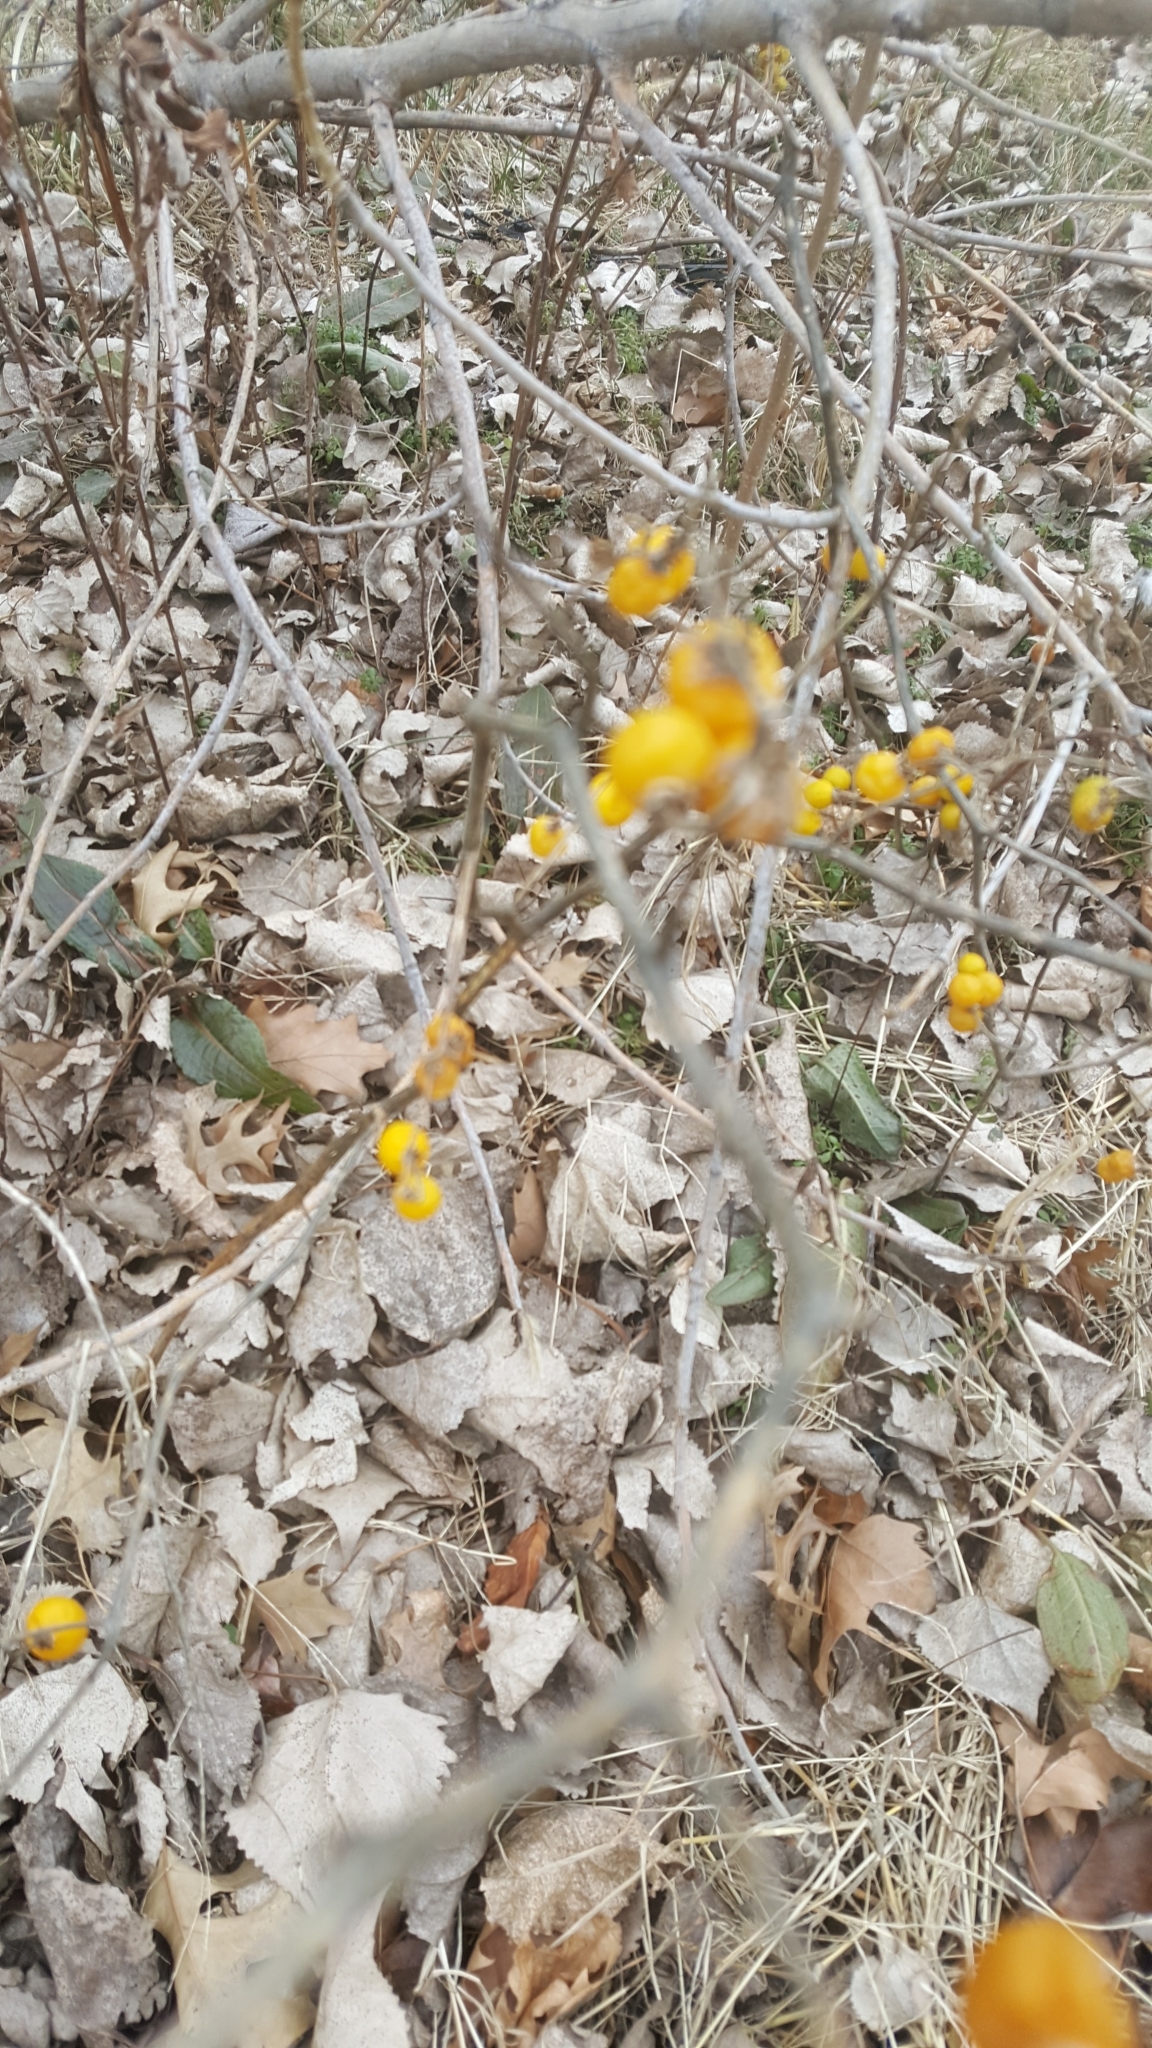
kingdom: Plantae
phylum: Tracheophyta
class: Magnoliopsida
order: Solanales
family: Solanaceae
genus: Solanum
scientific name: Solanum carolinense
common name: Horse-nettle
